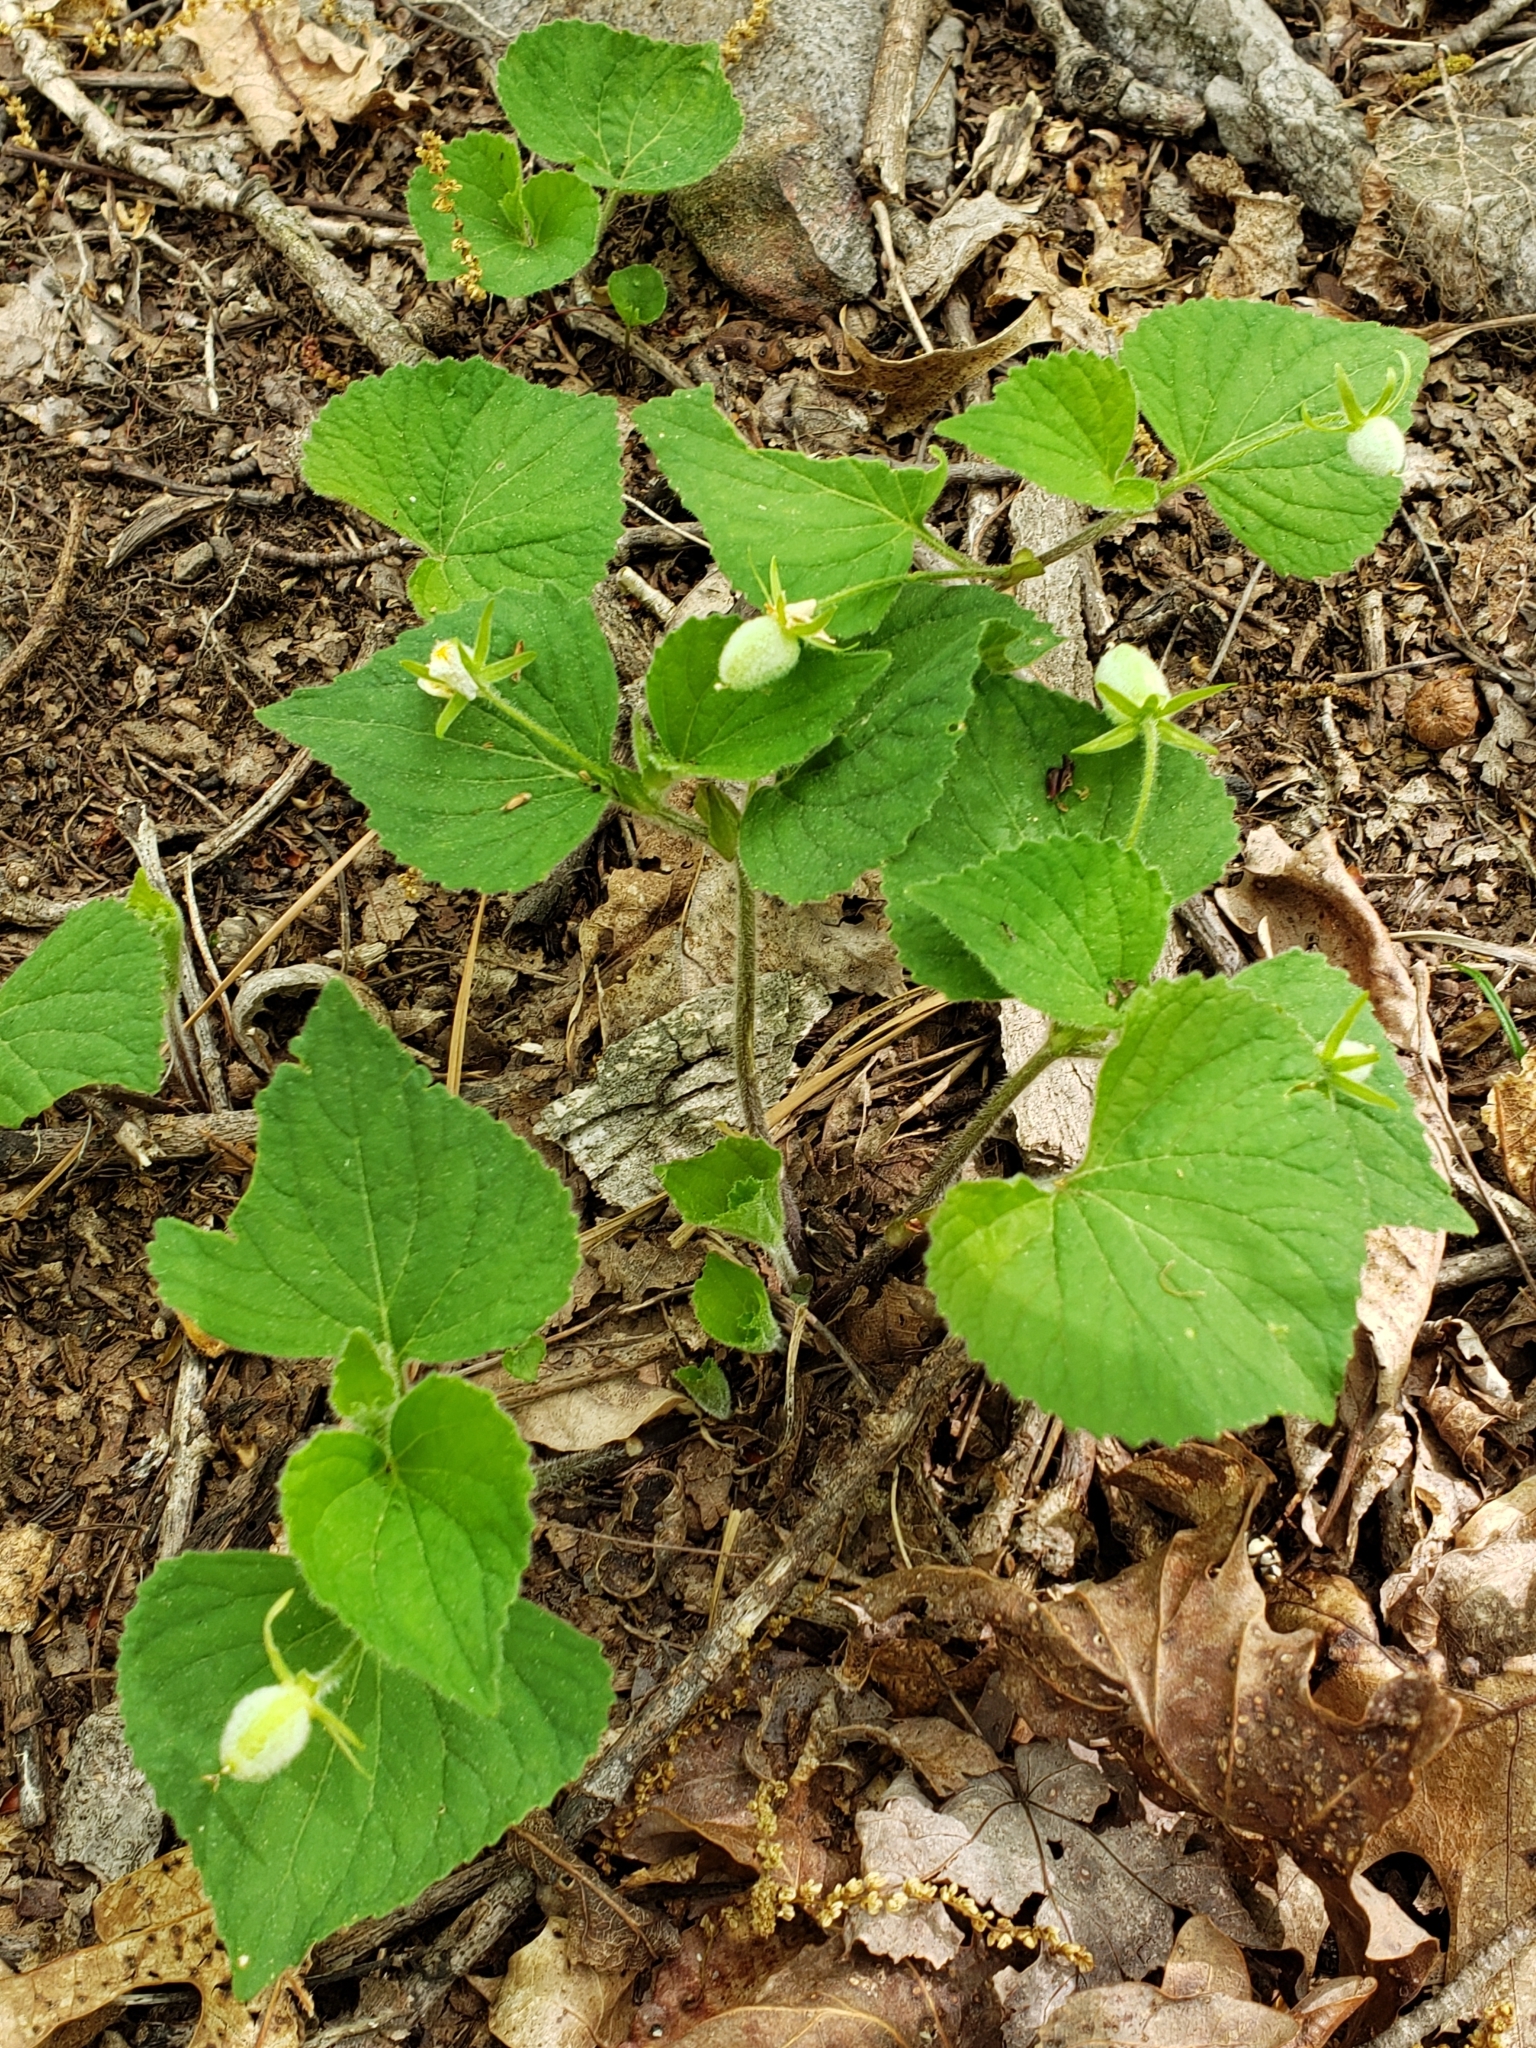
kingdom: Plantae
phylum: Tracheophyta
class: Magnoliopsida
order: Malpighiales
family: Violaceae
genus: Viola
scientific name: Viola eriocarpa
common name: Smooth yellow violet
